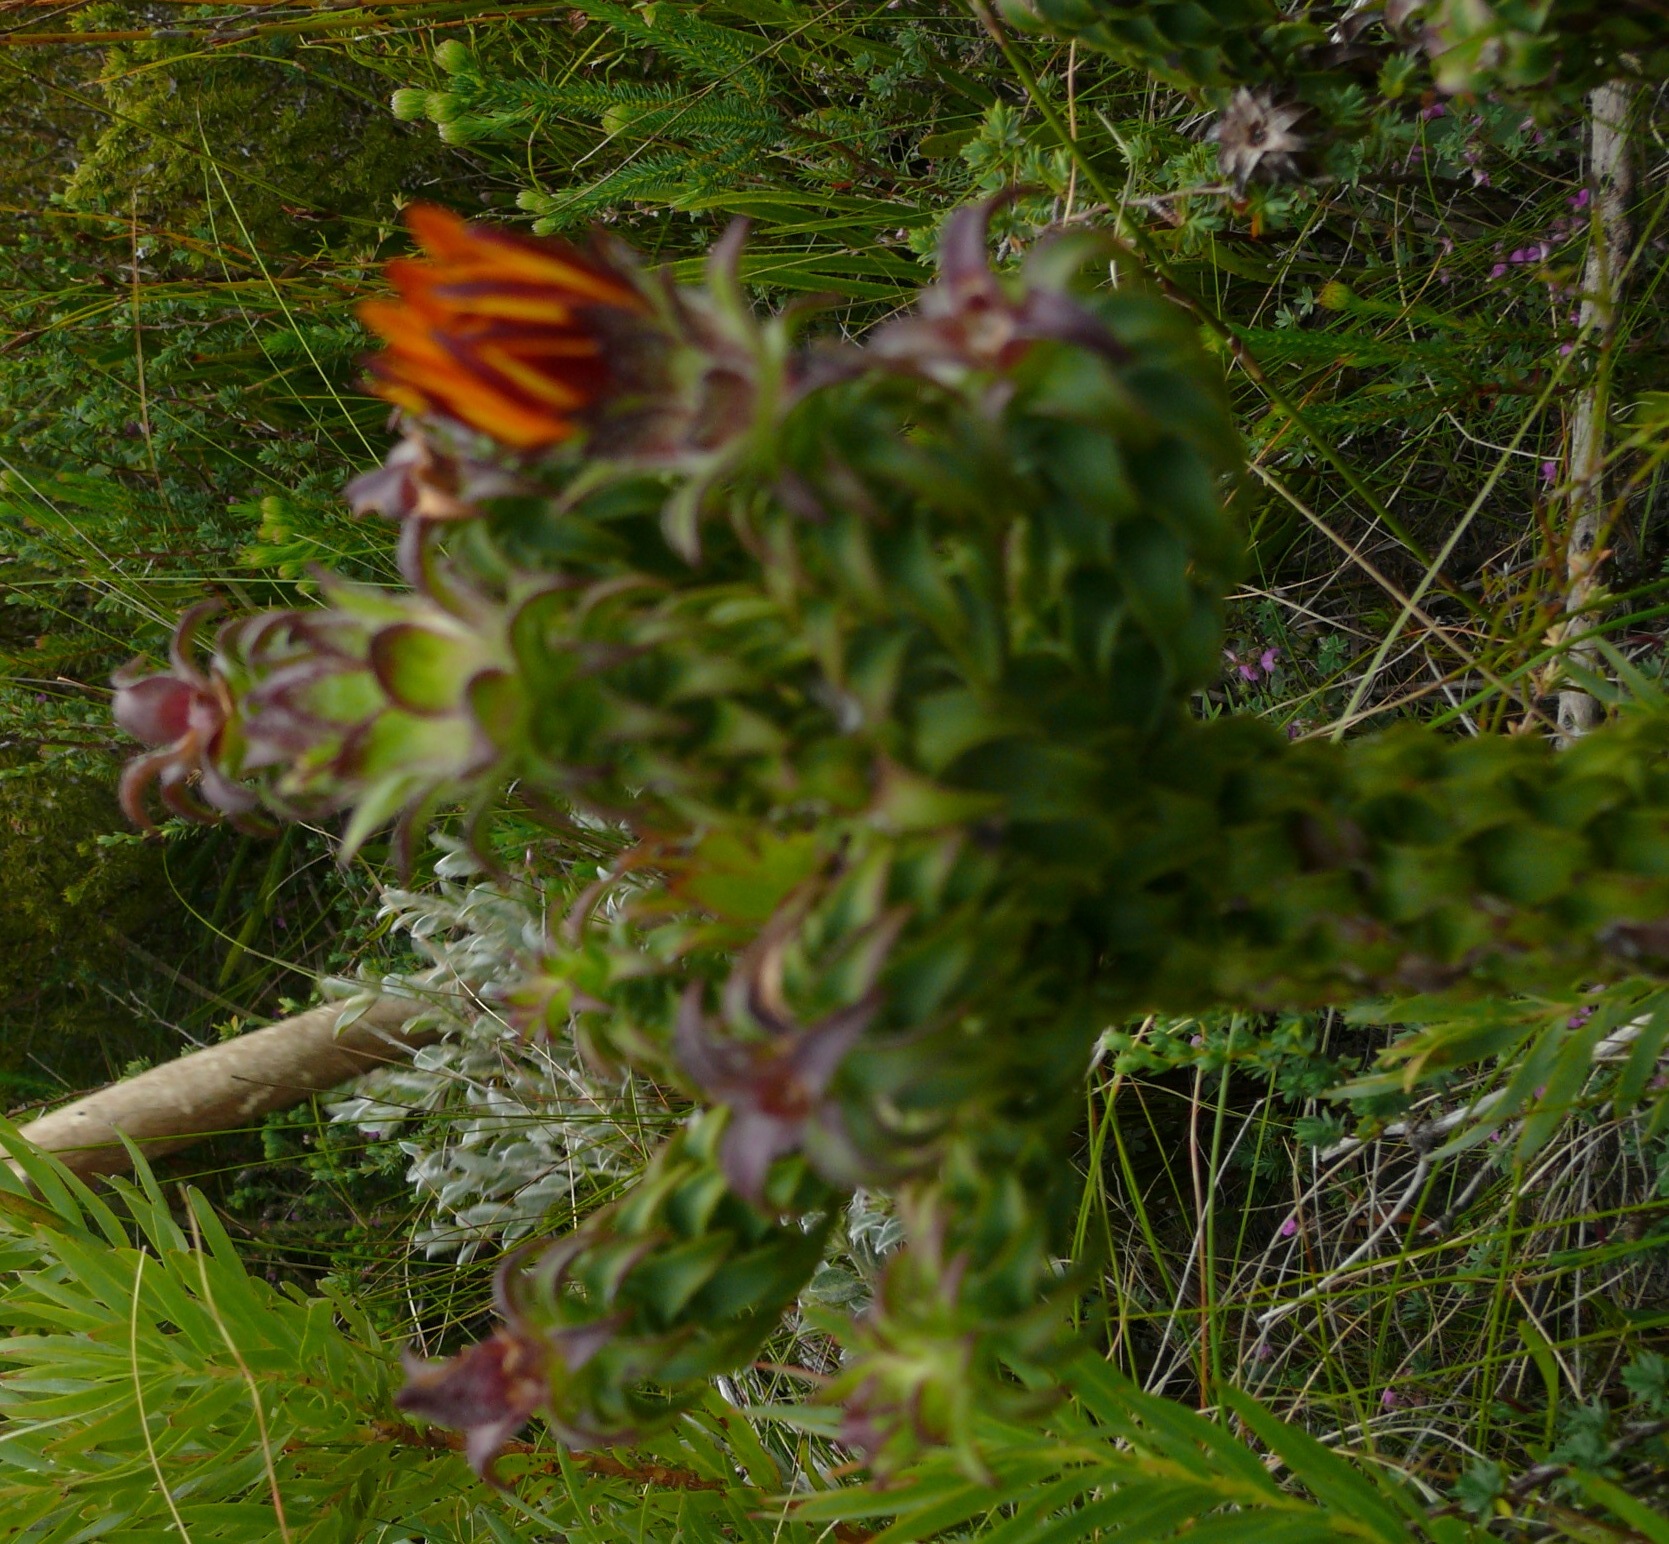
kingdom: Plantae
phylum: Tracheophyta
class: Magnoliopsida
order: Asterales
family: Asteraceae
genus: Oedera
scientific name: Oedera imbricata
